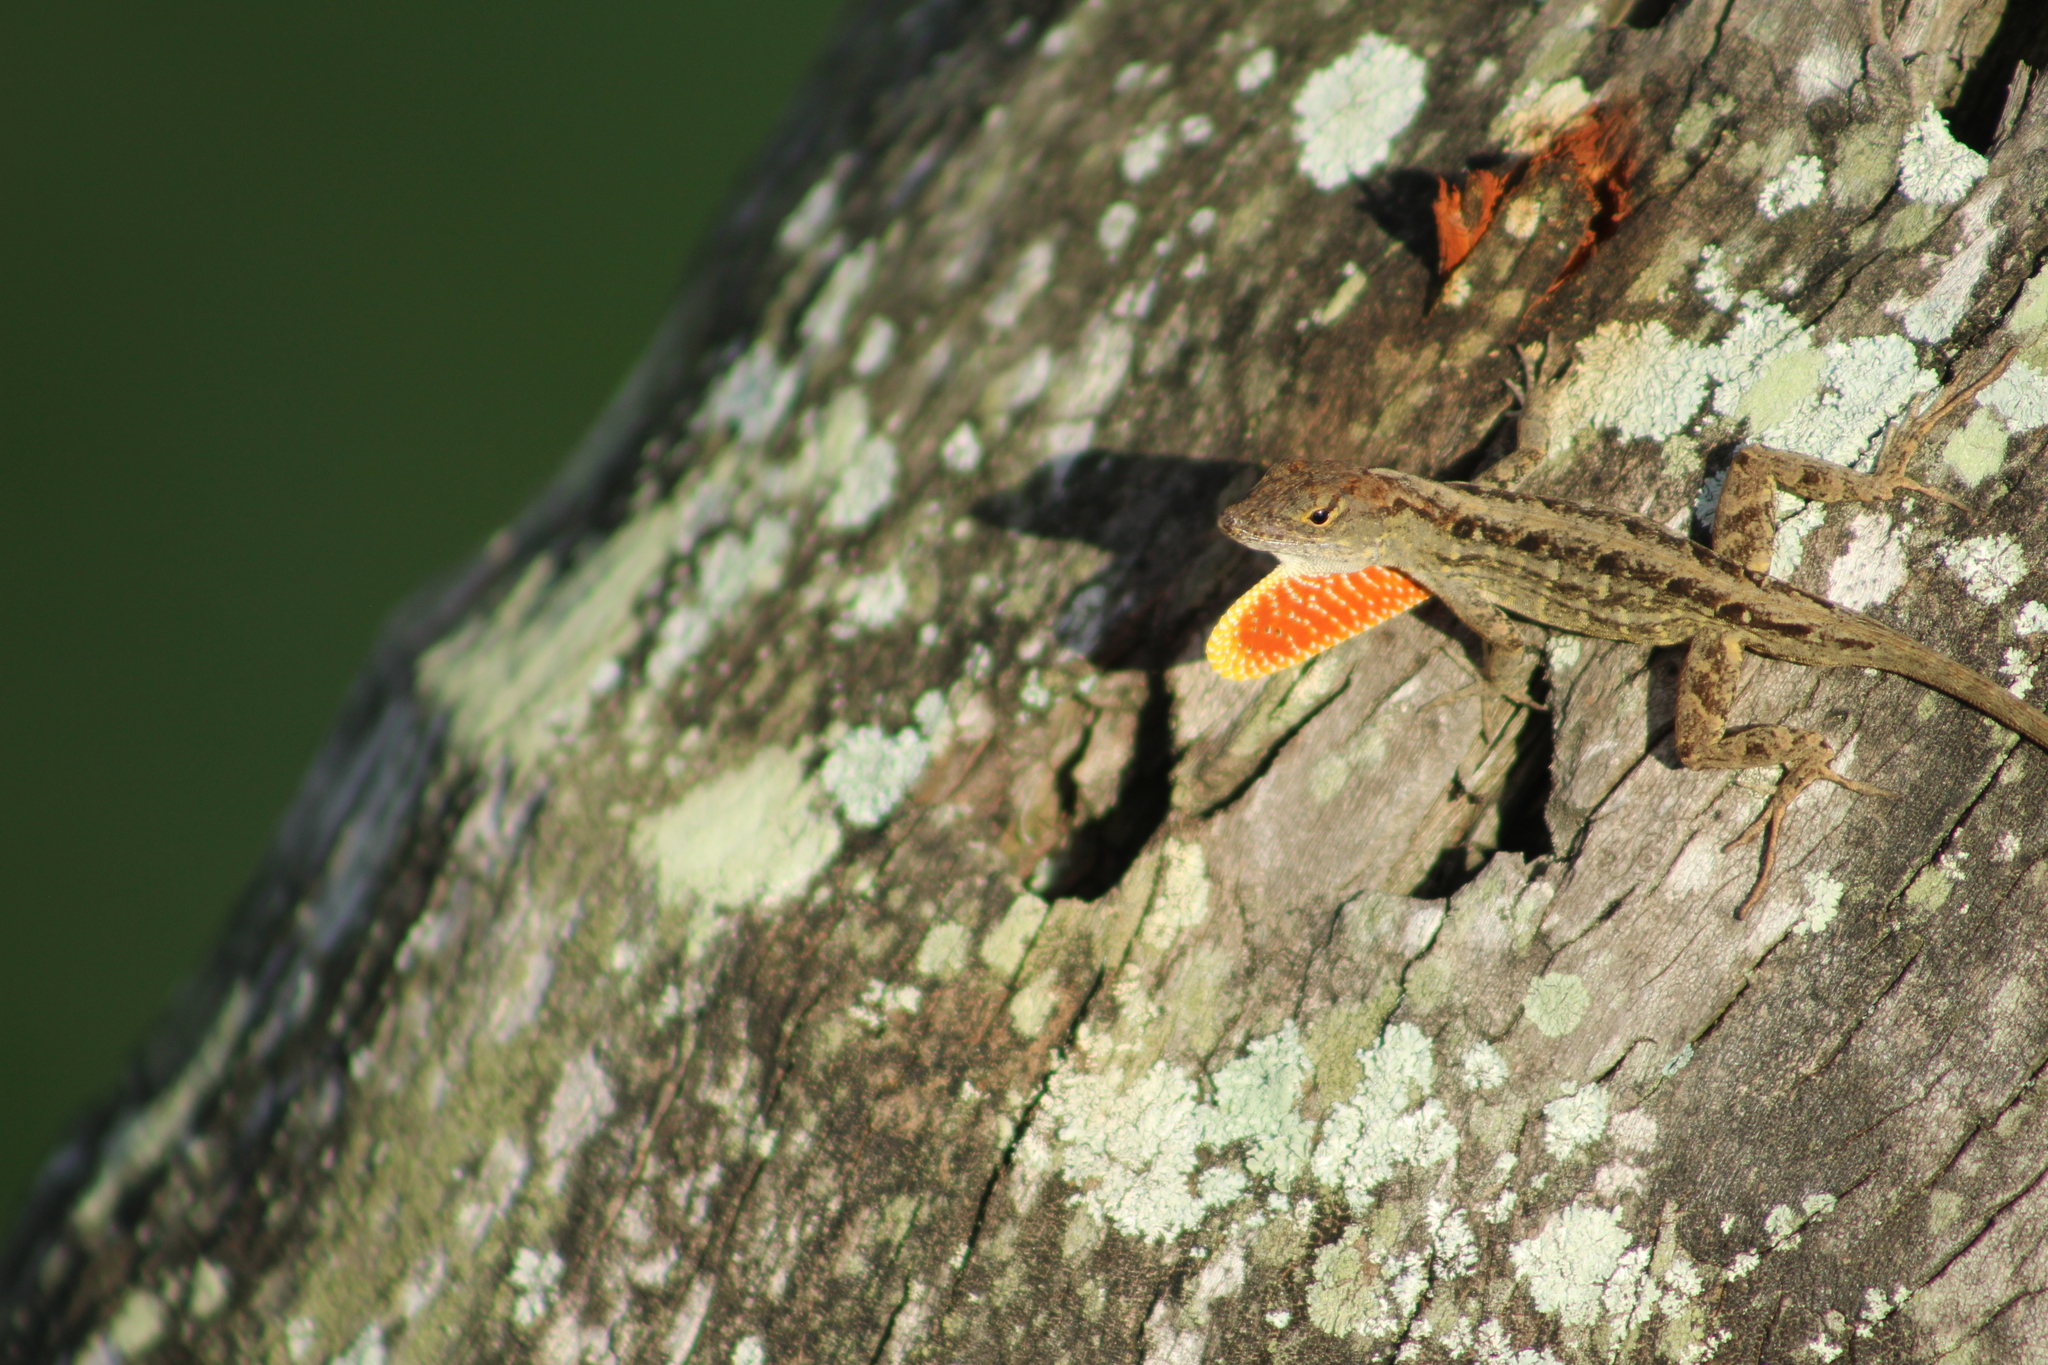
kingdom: Animalia
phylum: Chordata
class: Squamata
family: Dactyloidae
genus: Anolis
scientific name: Anolis sagrei
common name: Brown anole
